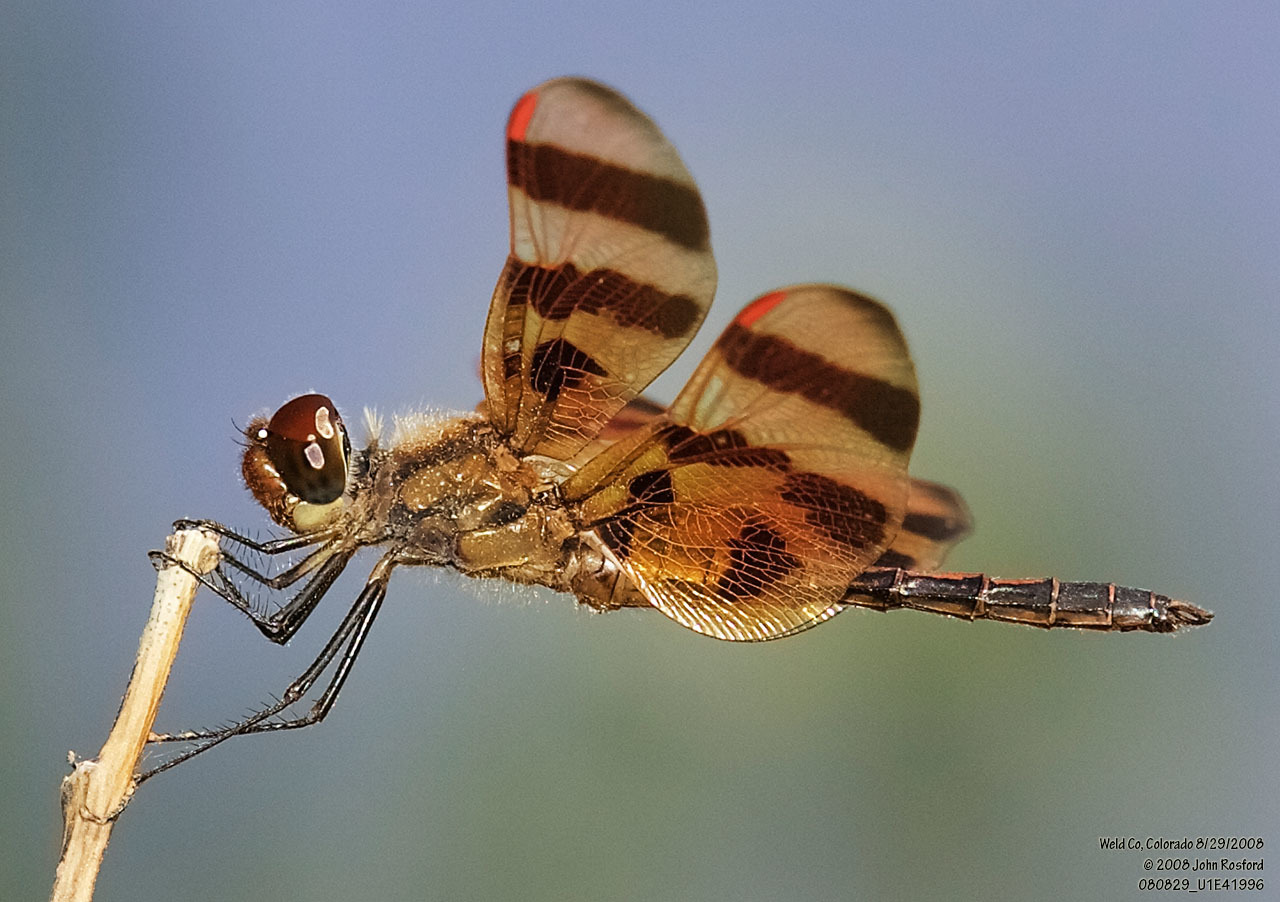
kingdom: Animalia
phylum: Arthropoda
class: Insecta
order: Odonata
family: Libellulidae
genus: Celithemis
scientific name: Celithemis eponina
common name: Halloween pennant
